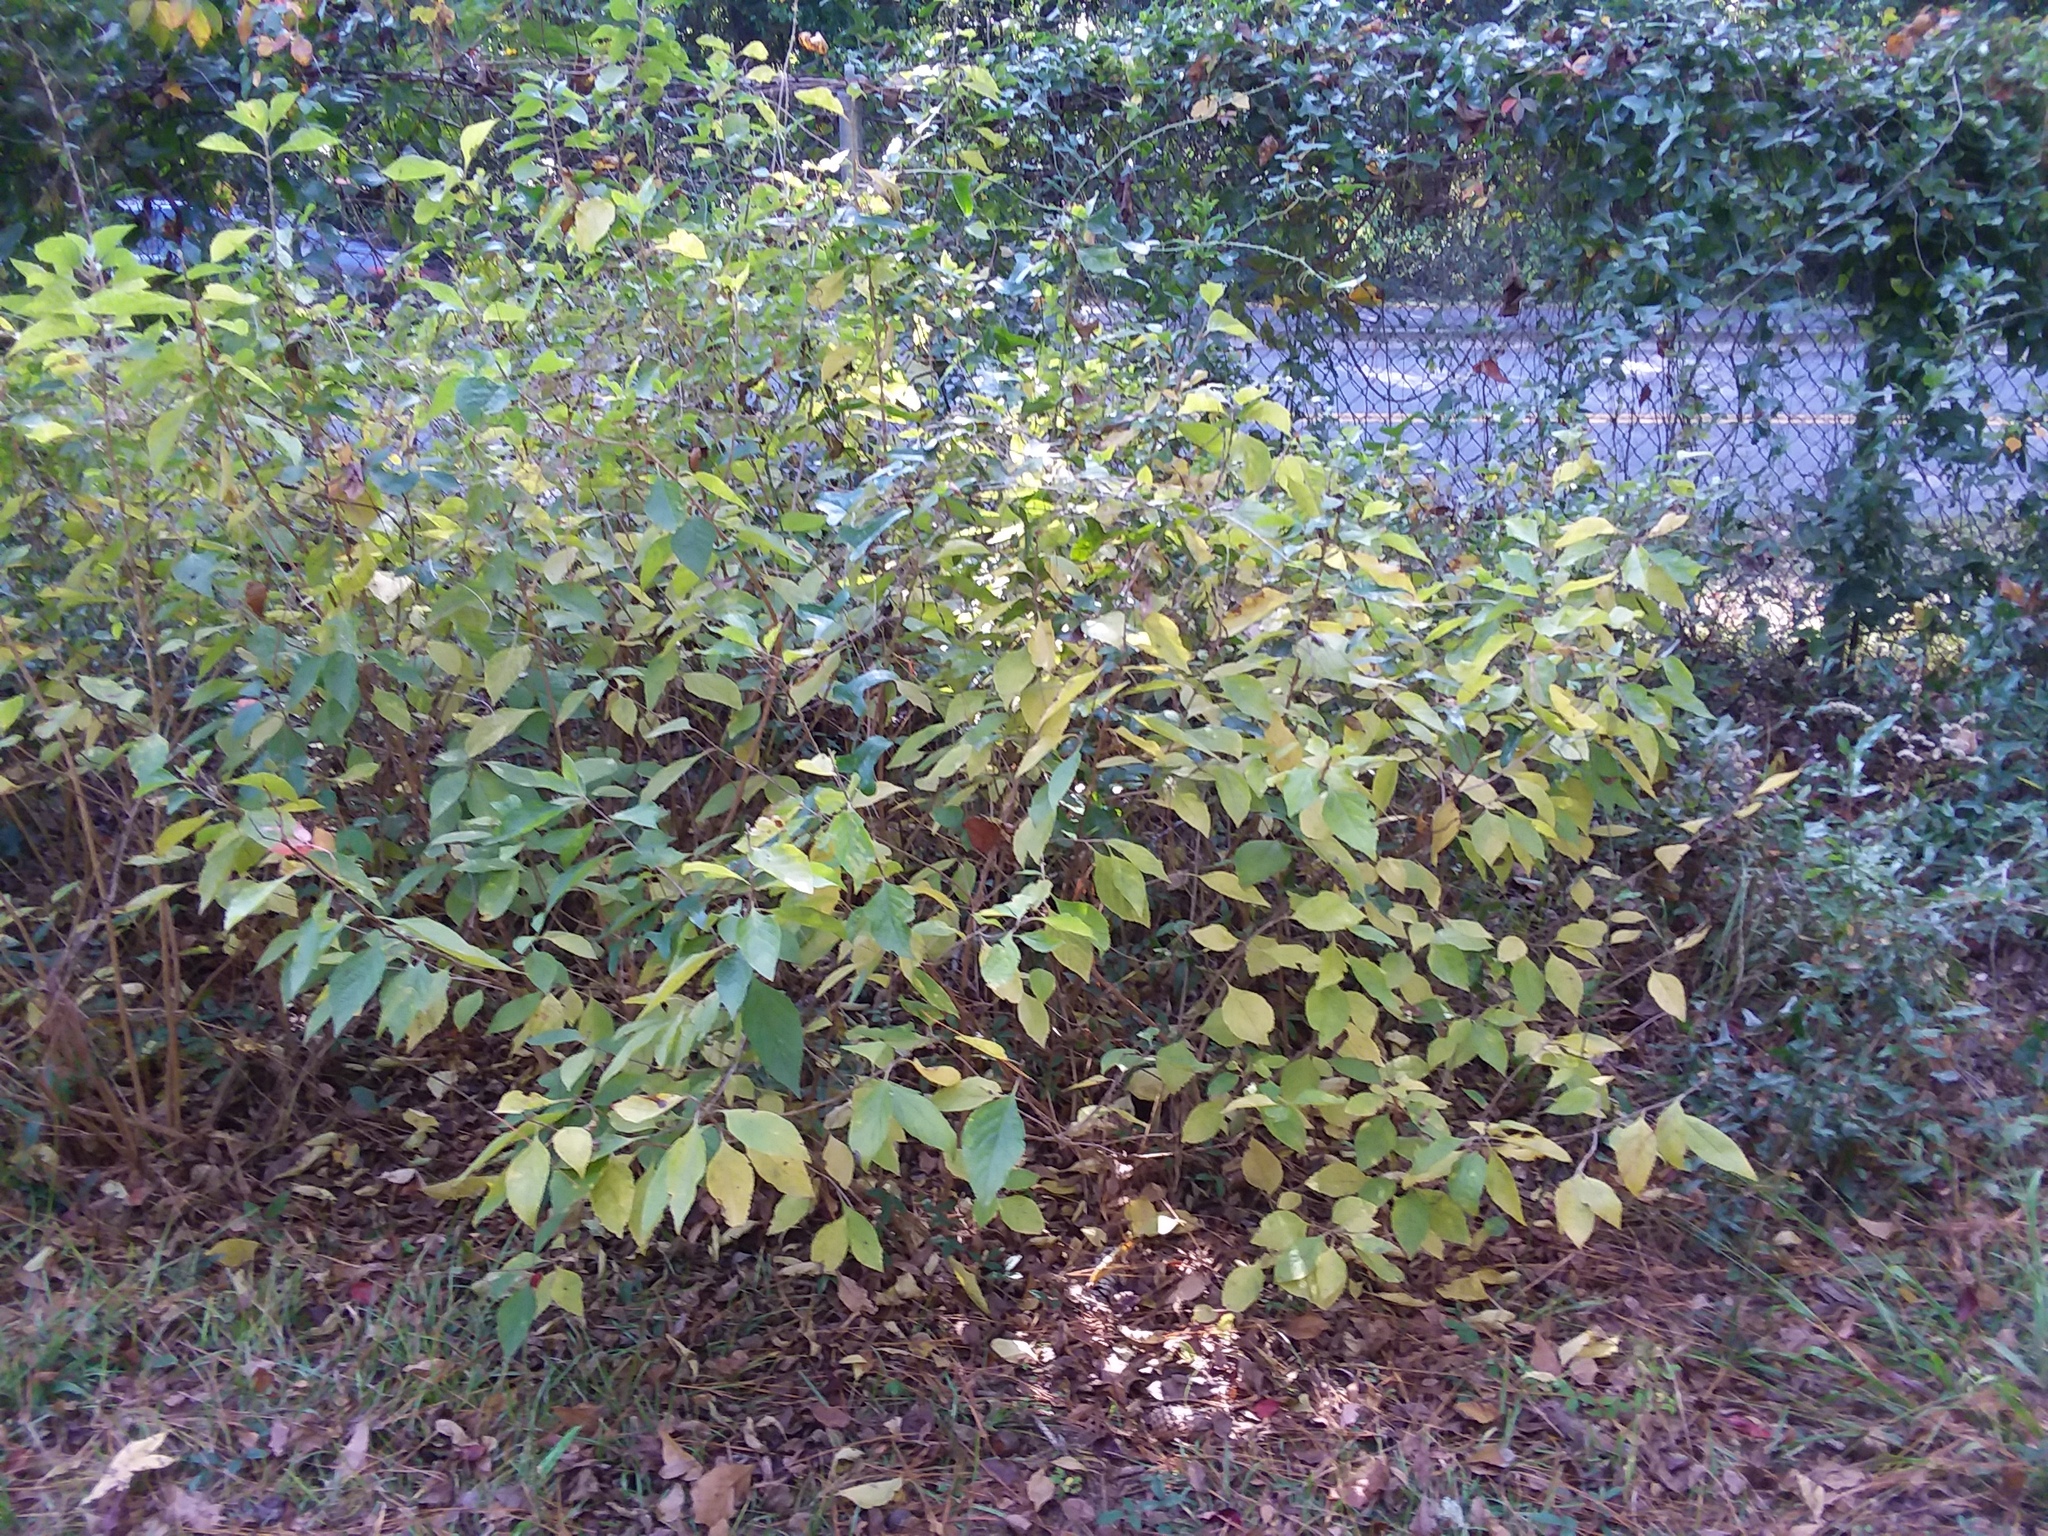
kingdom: Plantae
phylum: Tracheophyta
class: Magnoliopsida
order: Lamiales
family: Lamiaceae
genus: Callicarpa
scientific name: Callicarpa americana
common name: American beautyberry
